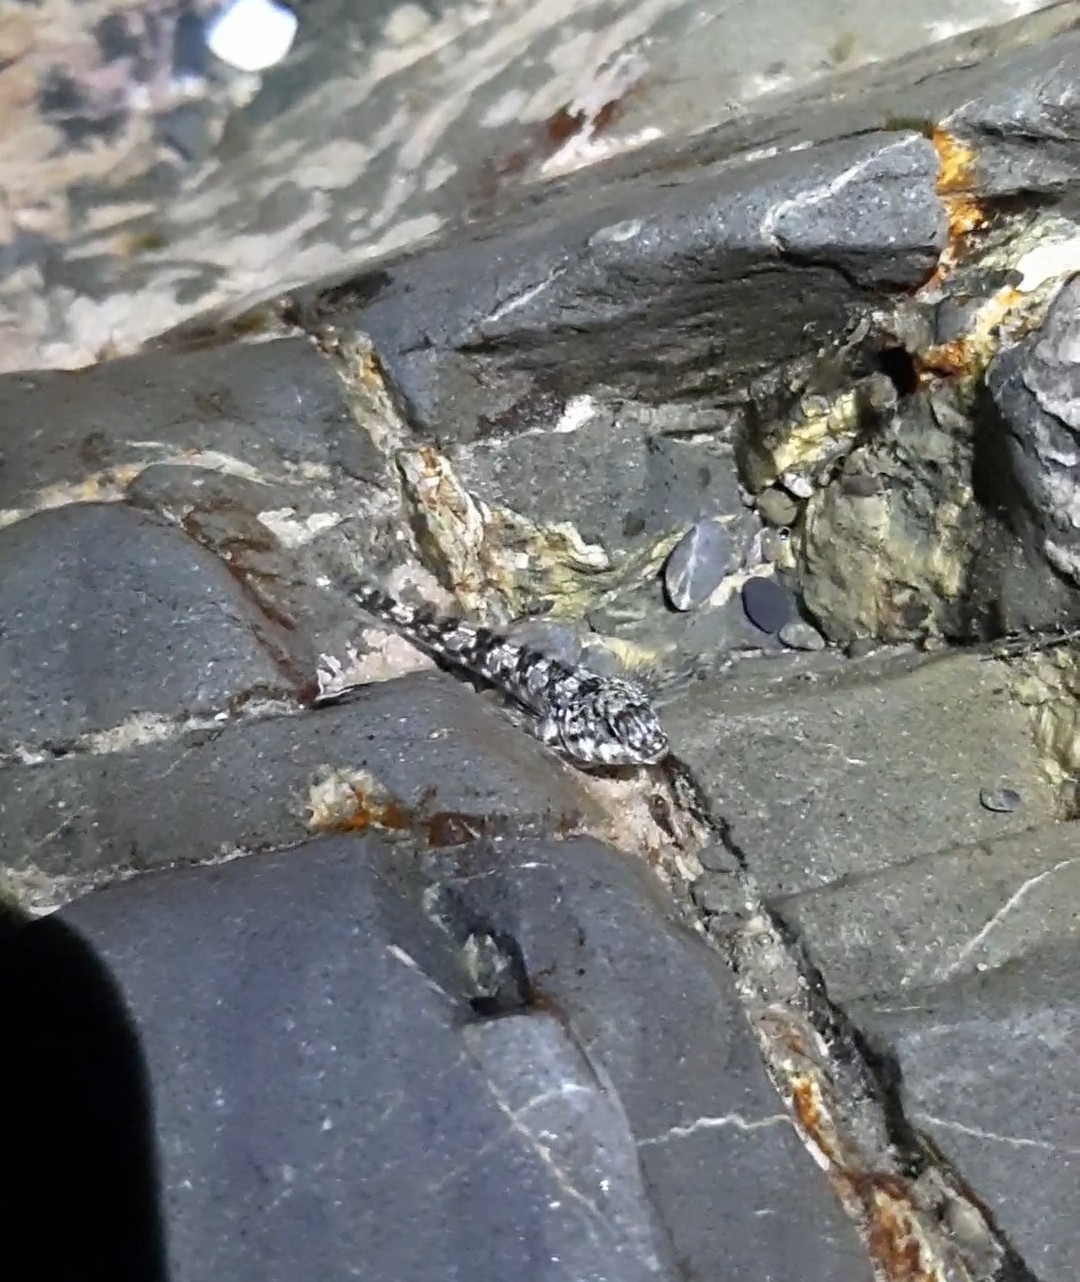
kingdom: Animalia
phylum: Chordata
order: Perciformes
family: Tripterygiidae
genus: Bellapiscis
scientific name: Bellapiscis medius
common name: Twister
